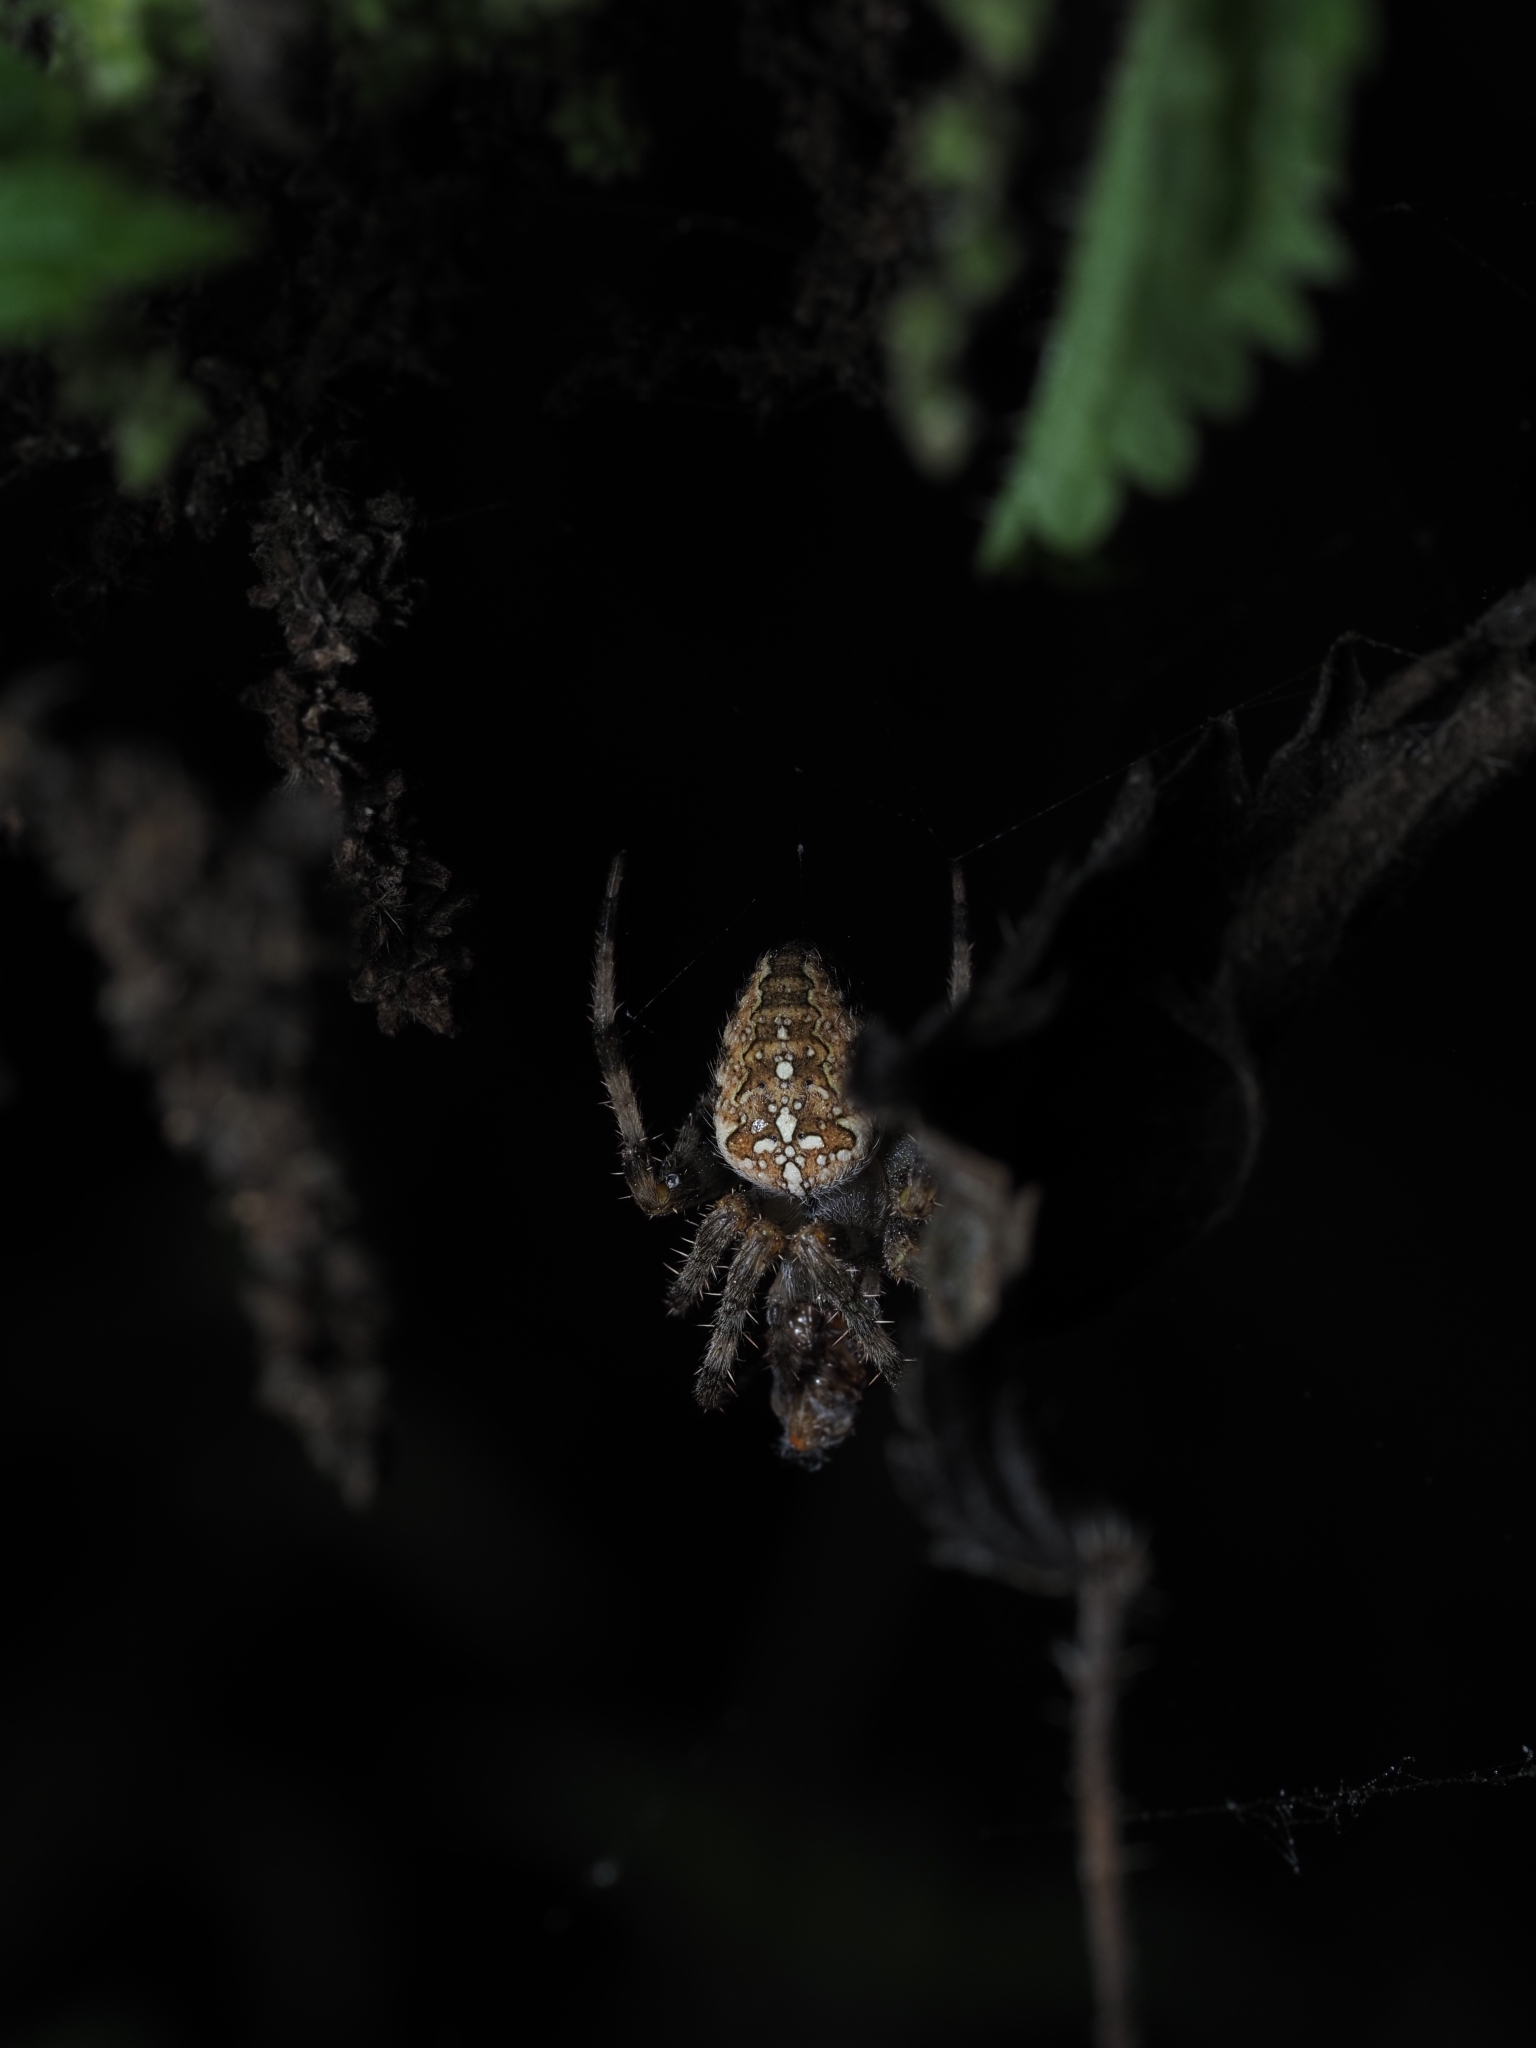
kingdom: Animalia
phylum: Arthropoda
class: Arachnida
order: Araneae
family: Araneidae
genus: Araneus
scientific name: Araneus diadematus
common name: Cross orbweaver
